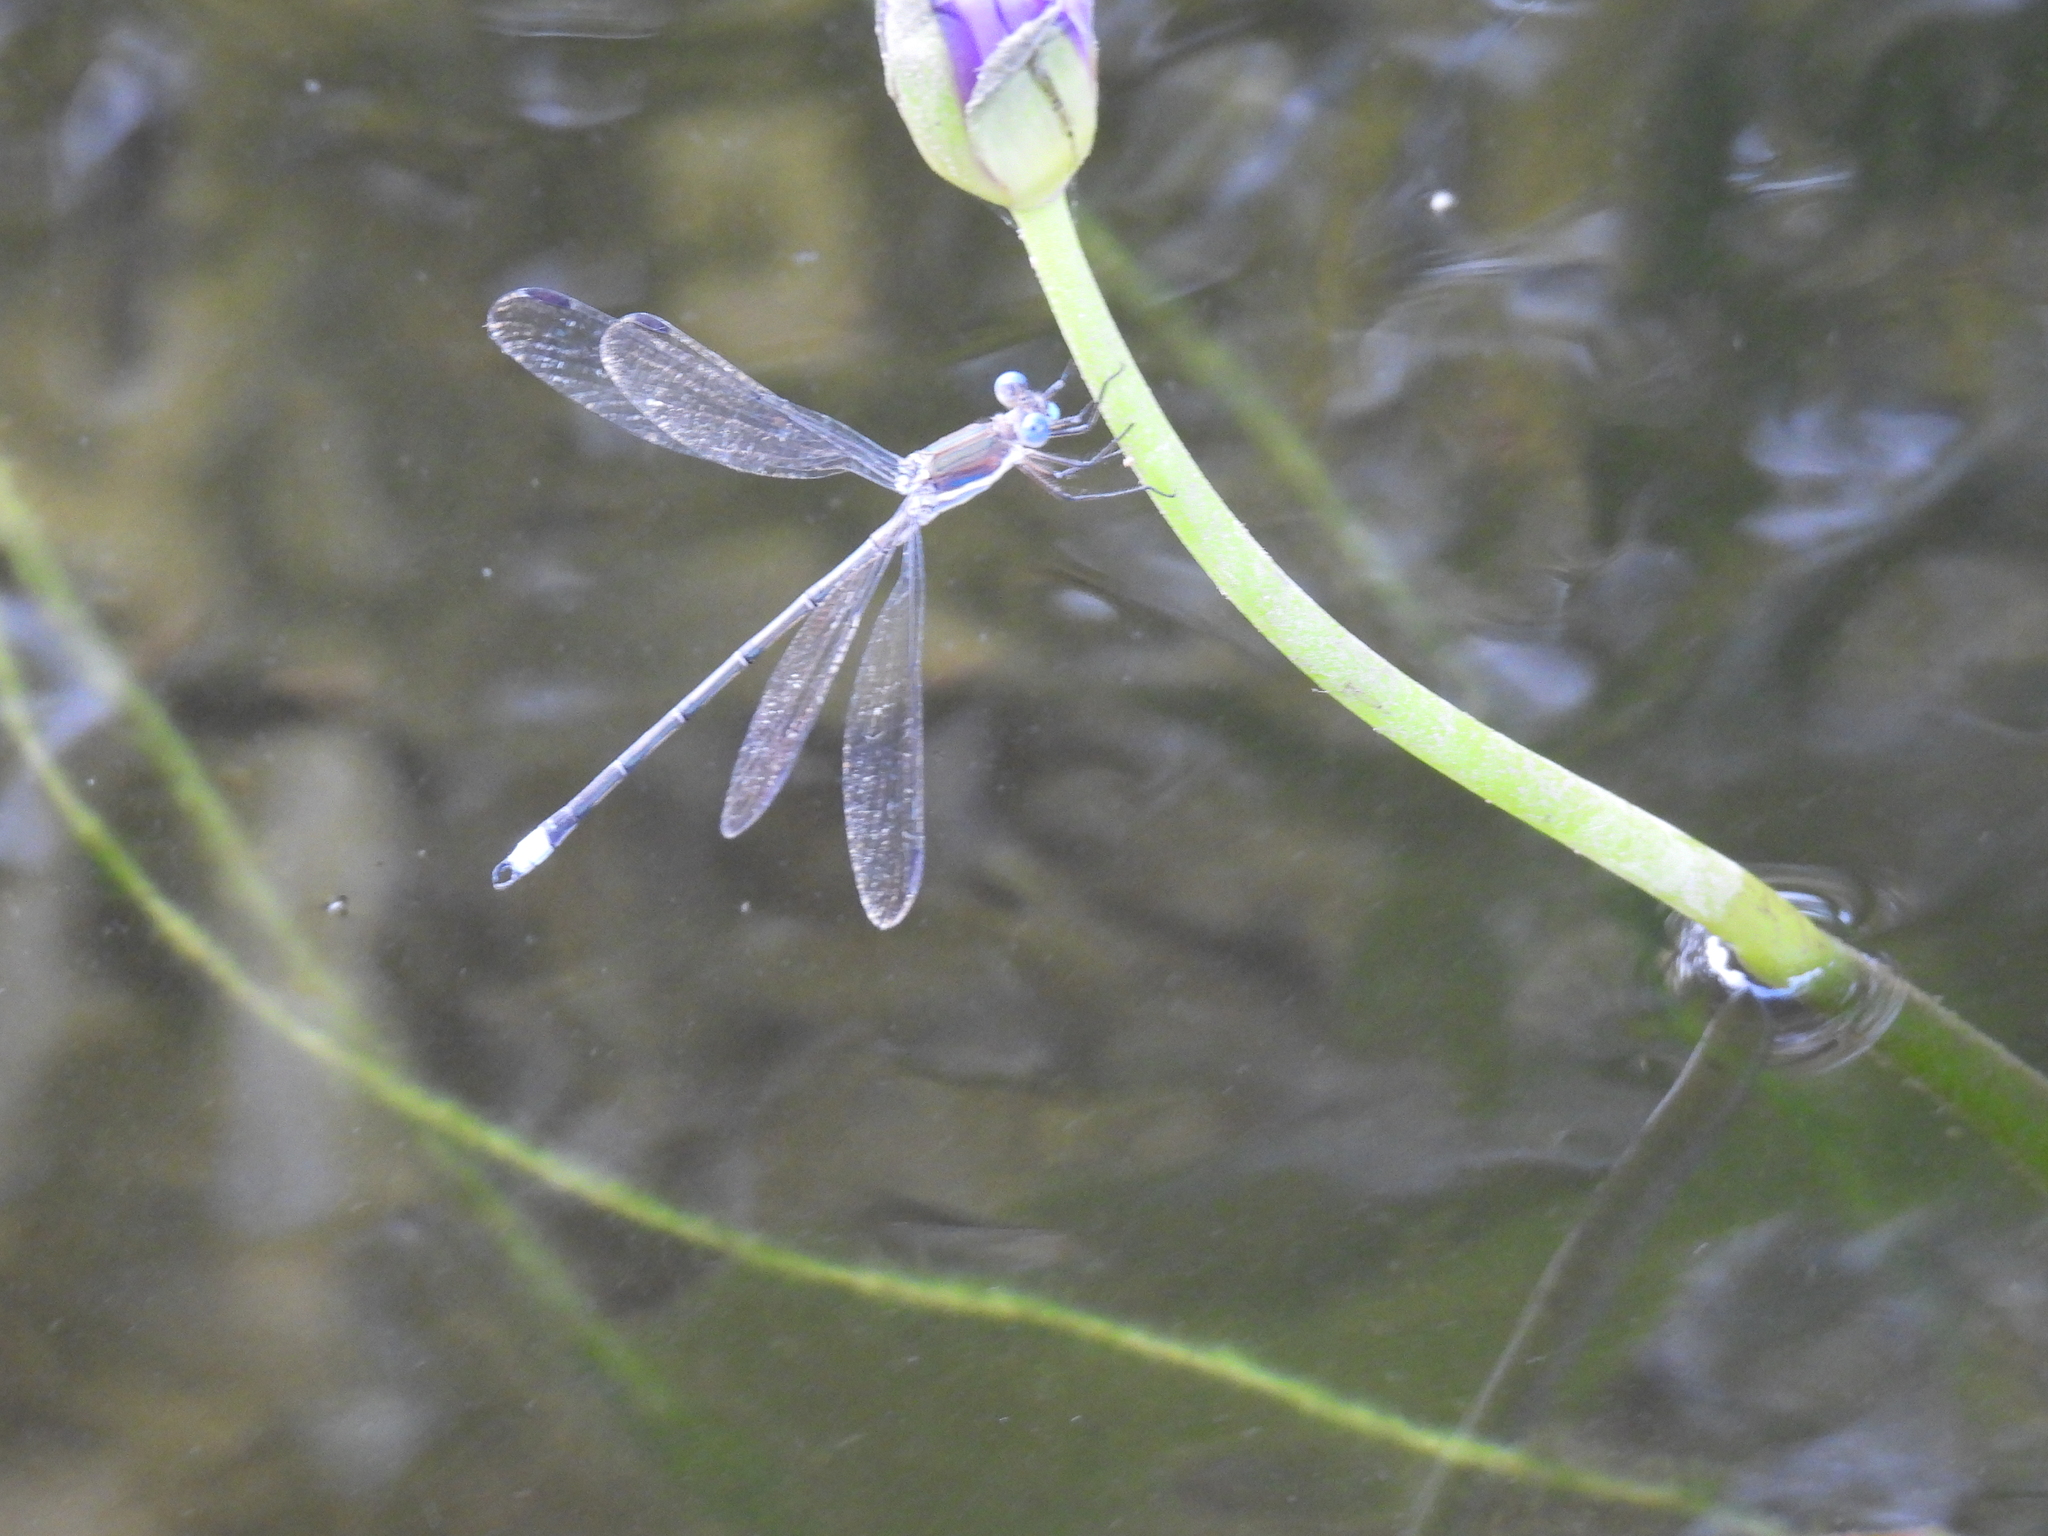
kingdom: Animalia
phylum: Arthropoda
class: Insecta
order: Odonata
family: Lestidae
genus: Archilestes
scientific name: Archilestes grandis
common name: Great spreadwing
